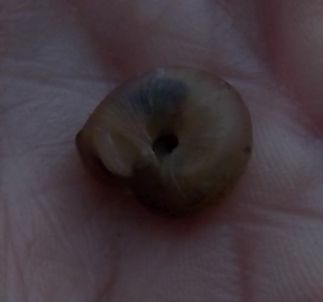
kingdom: Animalia
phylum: Mollusca
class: Gastropoda
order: Stylommatophora
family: Hygromiidae
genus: Trochulus
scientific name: Trochulus striolatus
